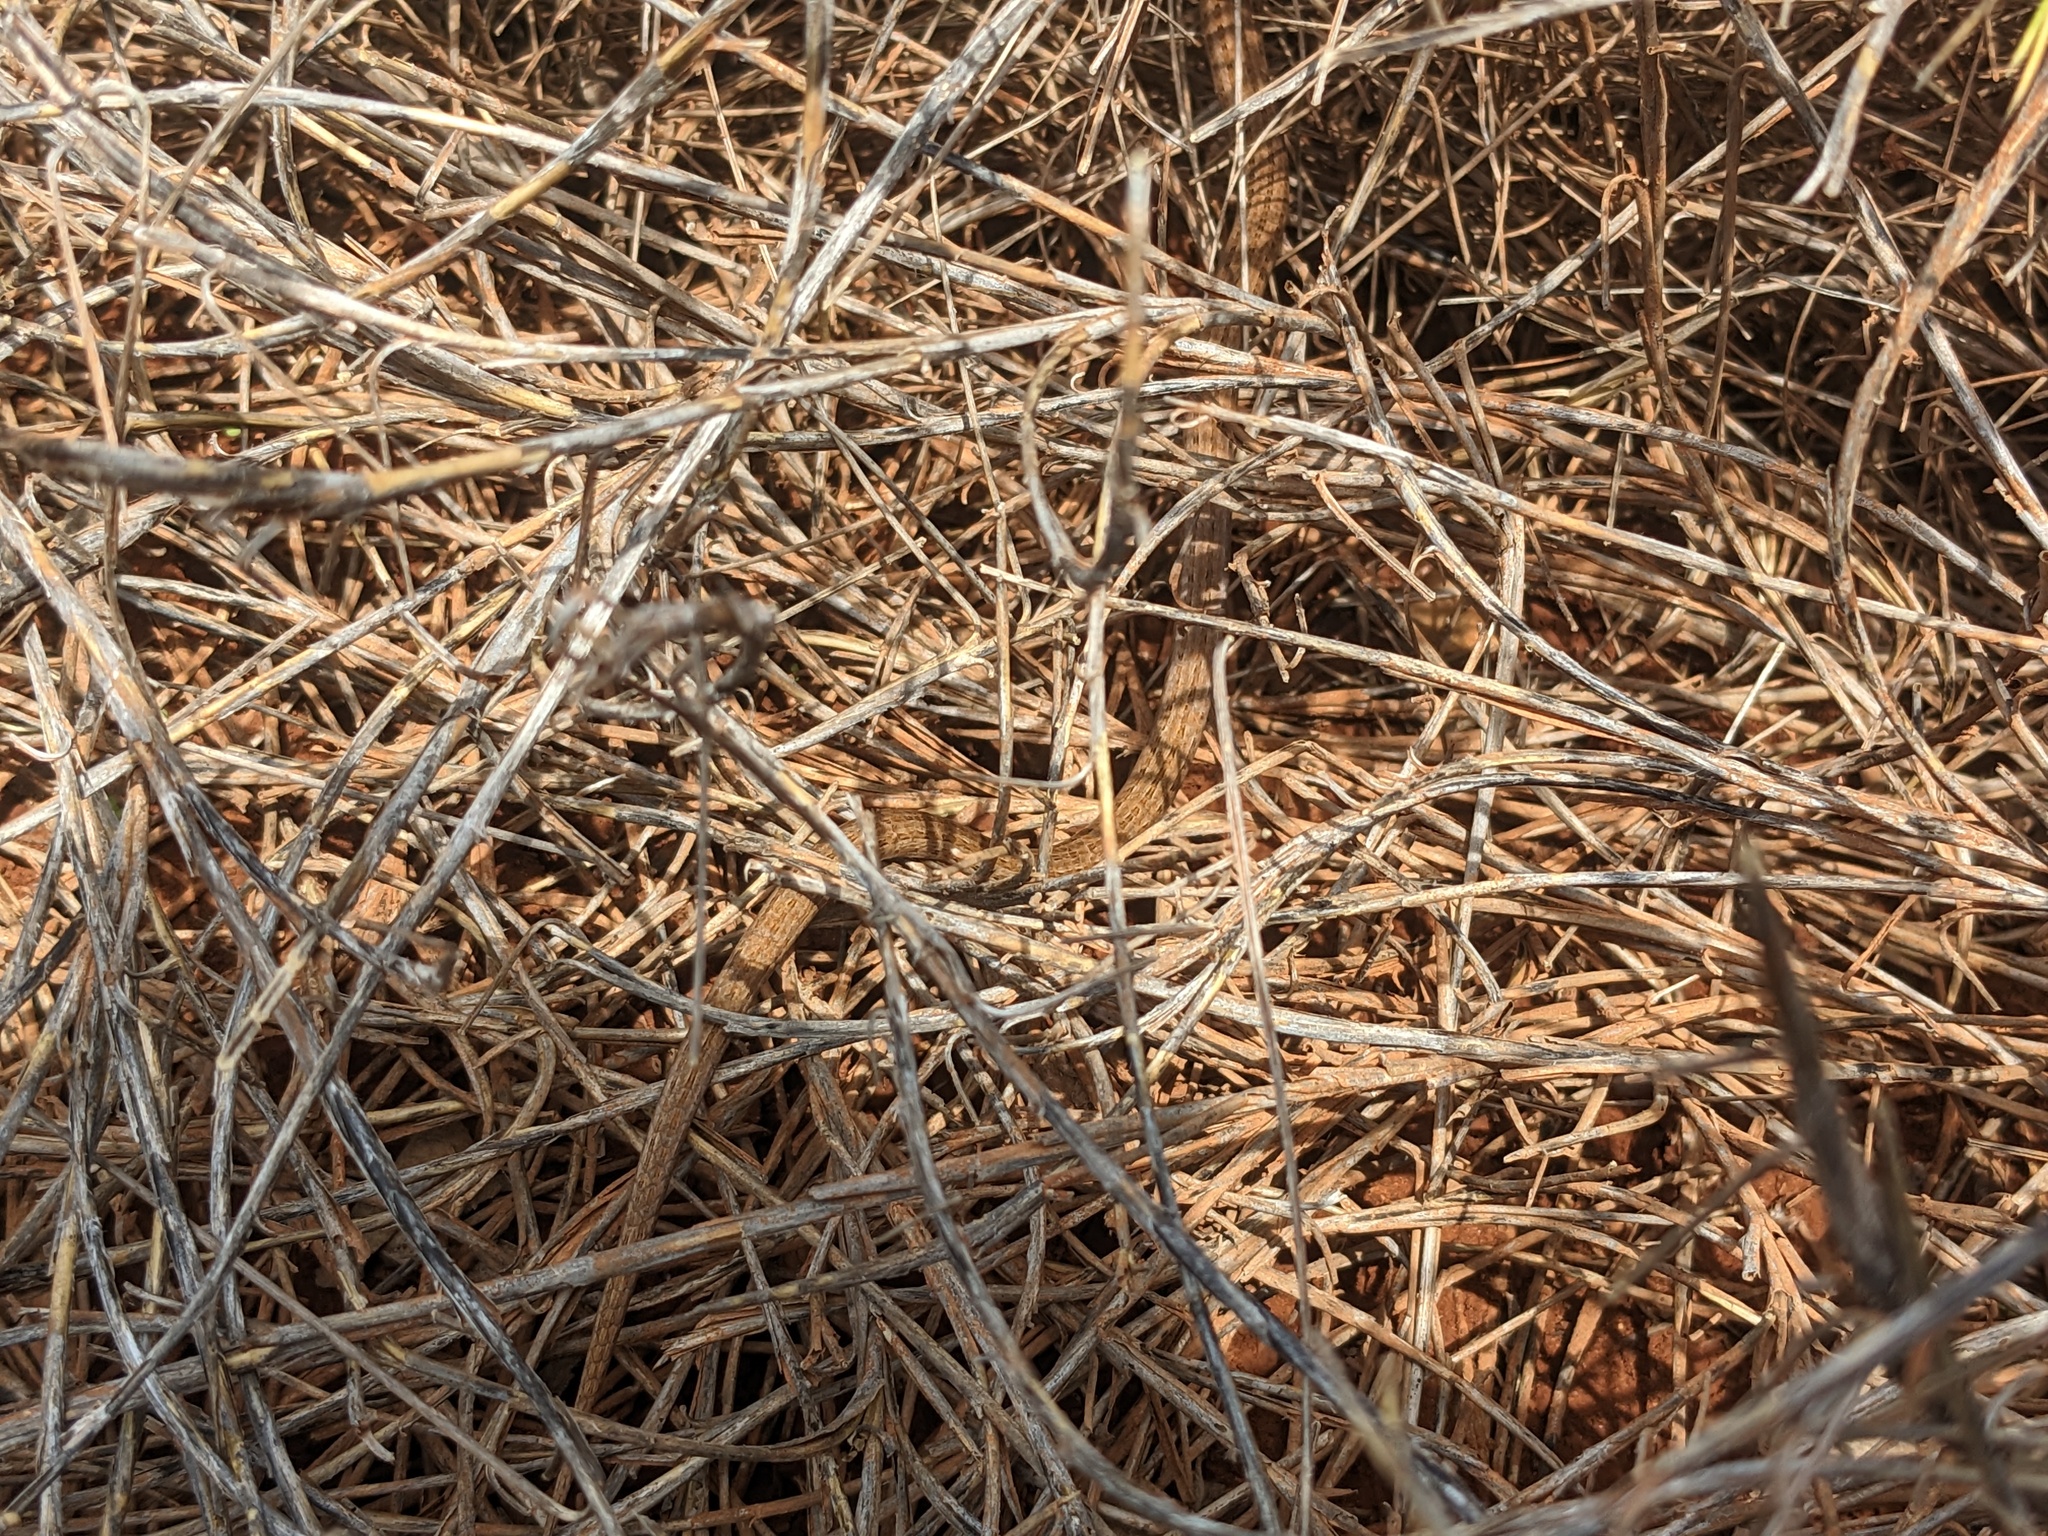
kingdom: Animalia
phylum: Chordata
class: Squamata
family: Pygopodidae
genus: Lialis
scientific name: Lialis burtonis
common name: Burton's legless lizard
